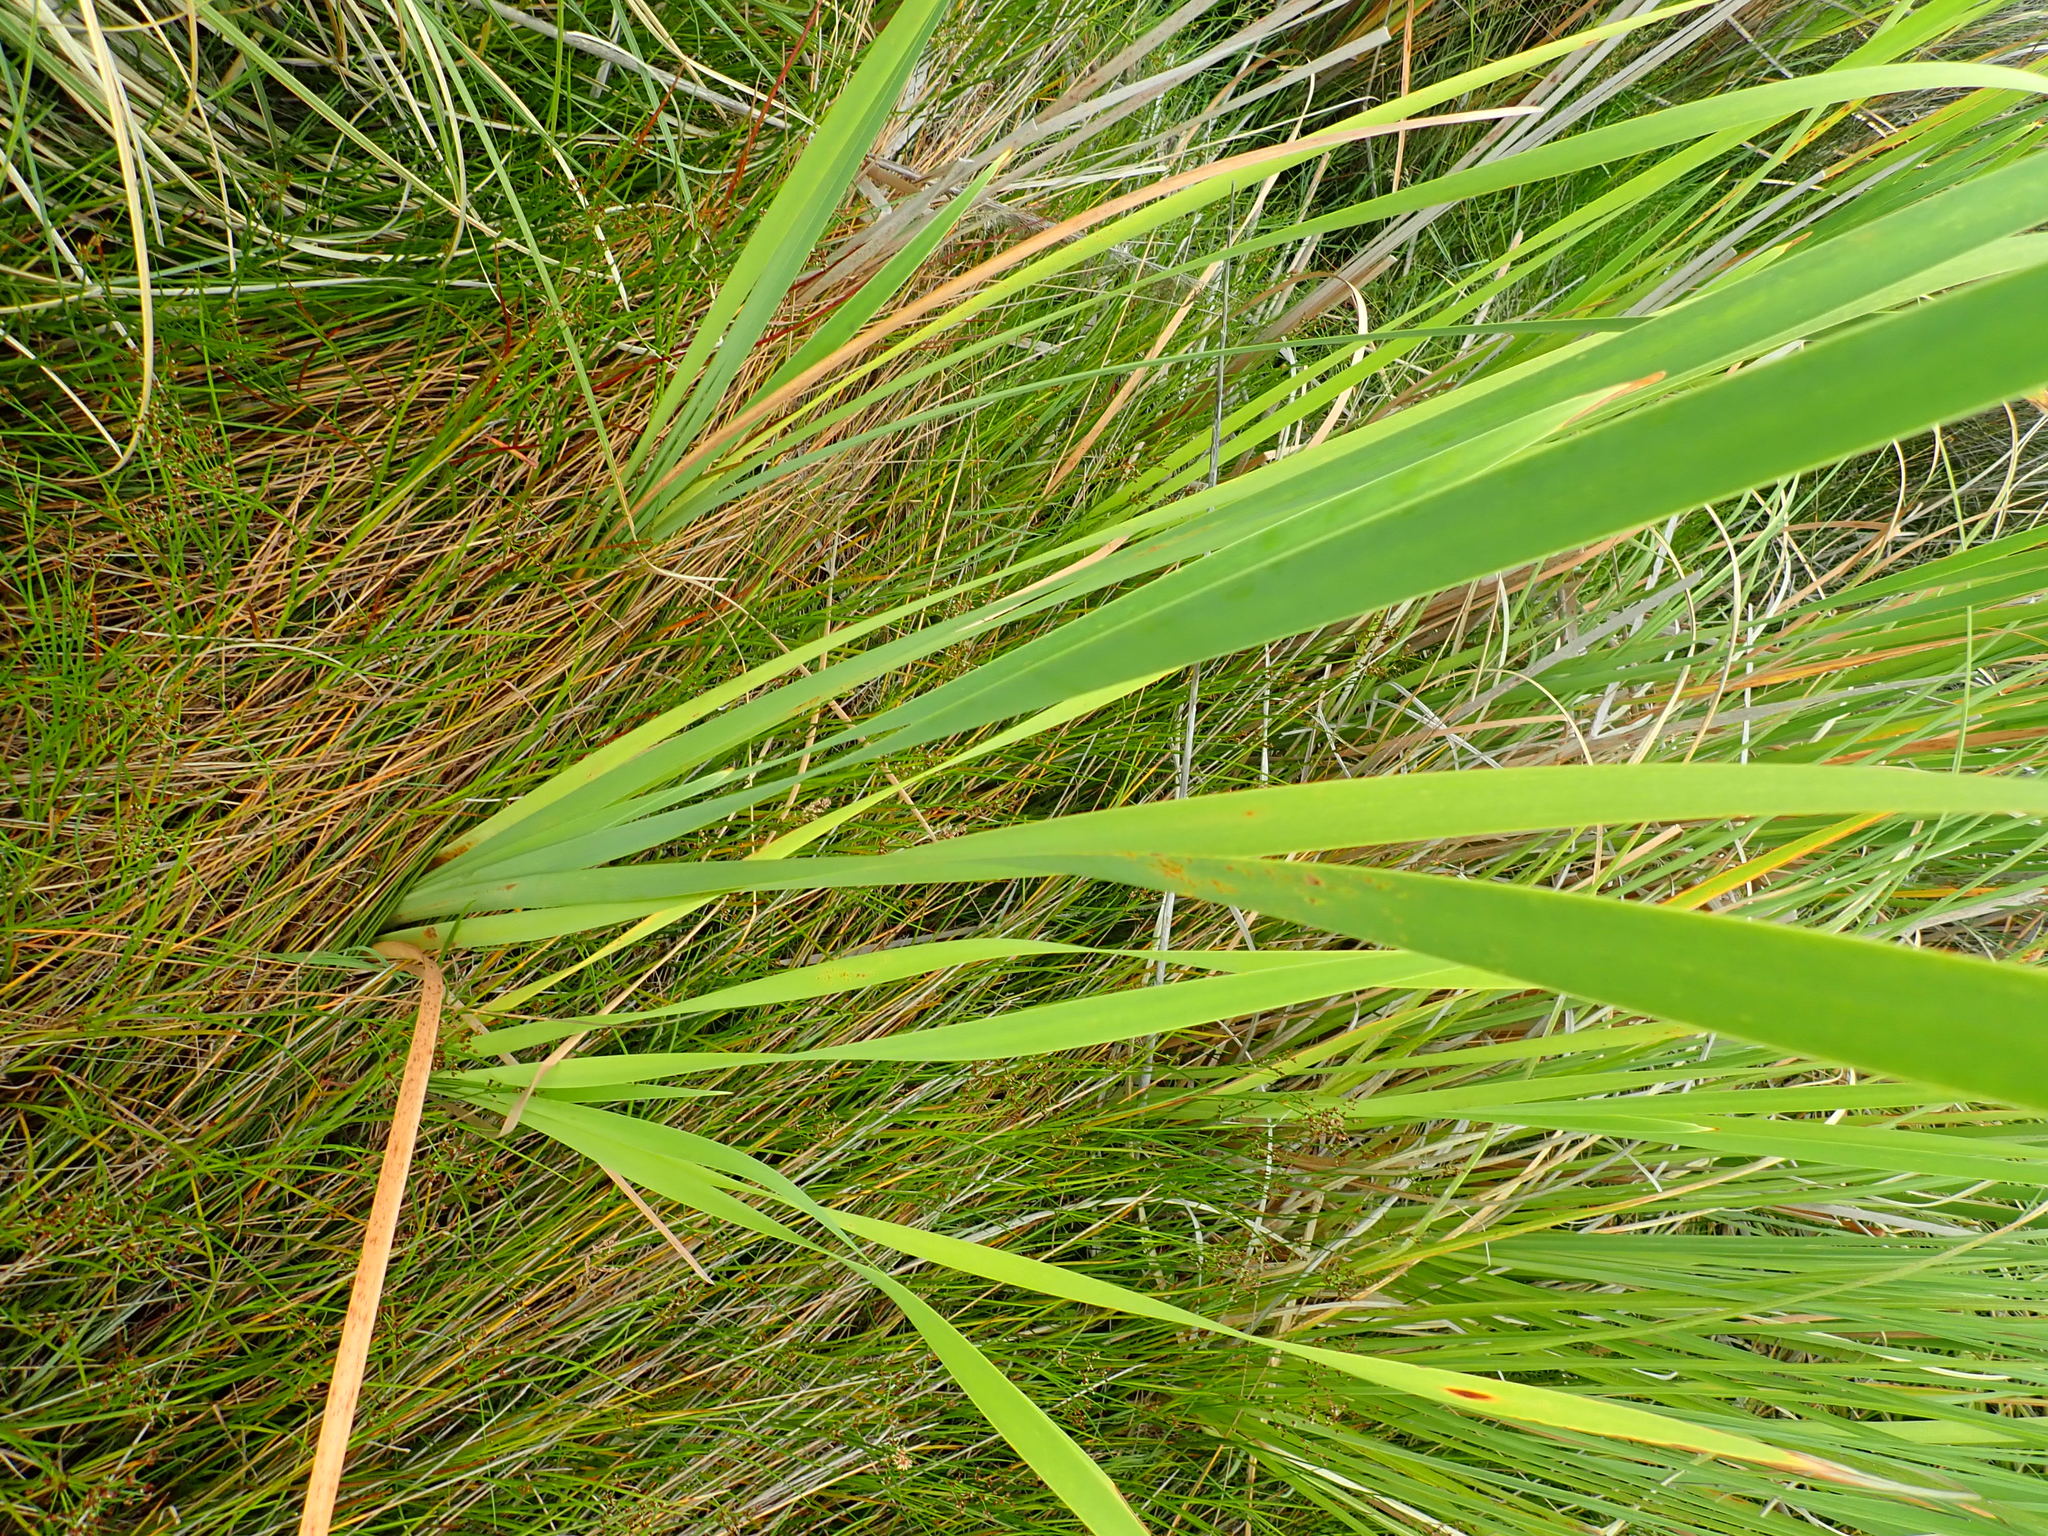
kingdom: Plantae
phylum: Tracheophyta
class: Liliopsida
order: Poales
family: Typhaceae
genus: Typha
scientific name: Typha orientalis
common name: Bullrush
